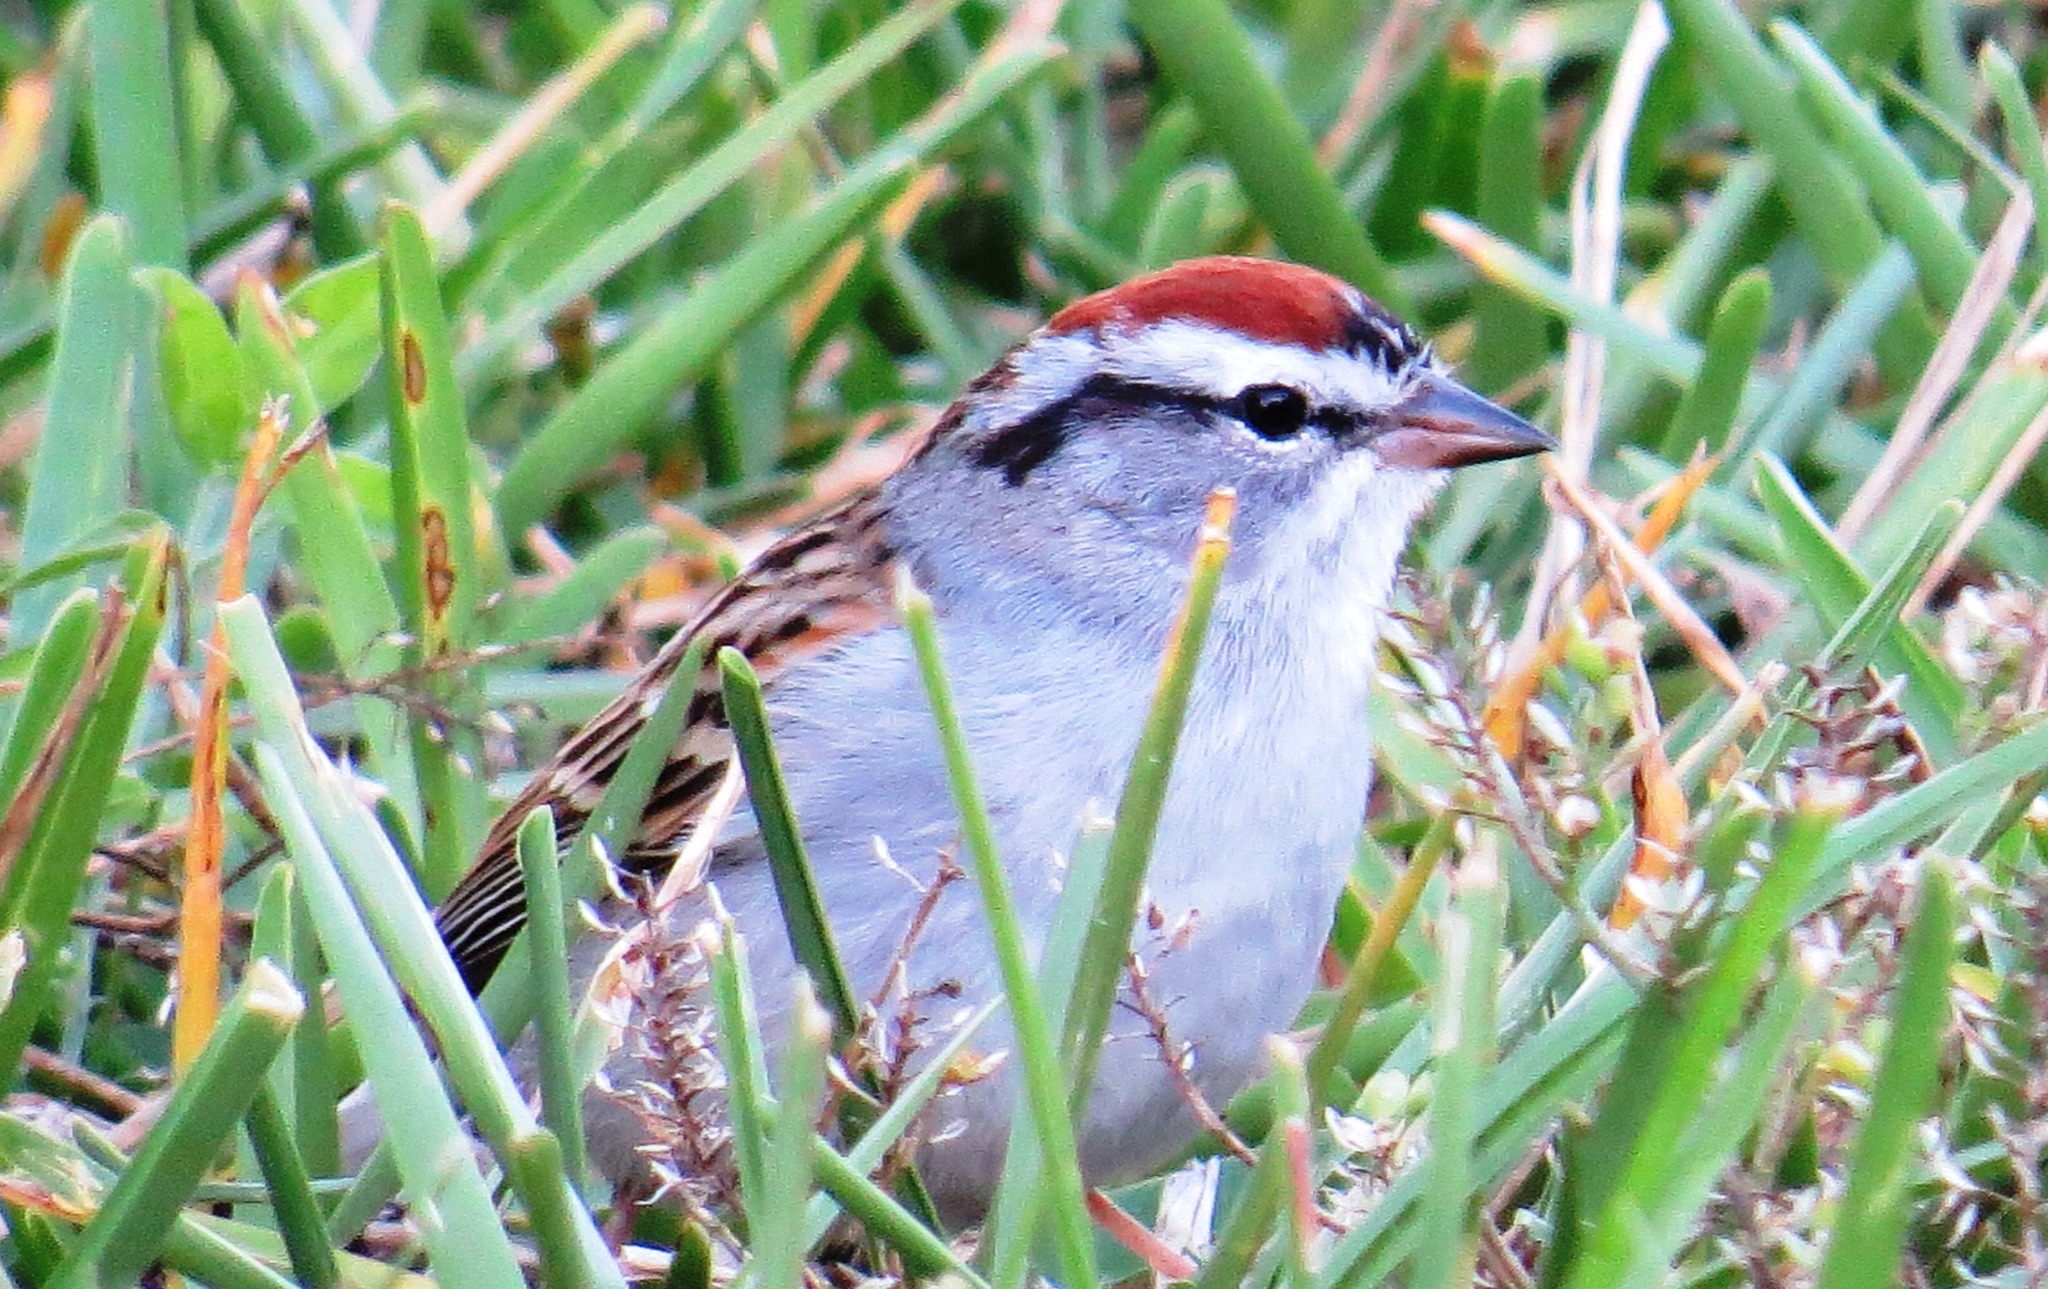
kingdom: Animalia
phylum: Chordata
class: Aves
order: Passeriformes
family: Passerellidae
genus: Spizella
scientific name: Spizella passerina
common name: Chipping sparrow
